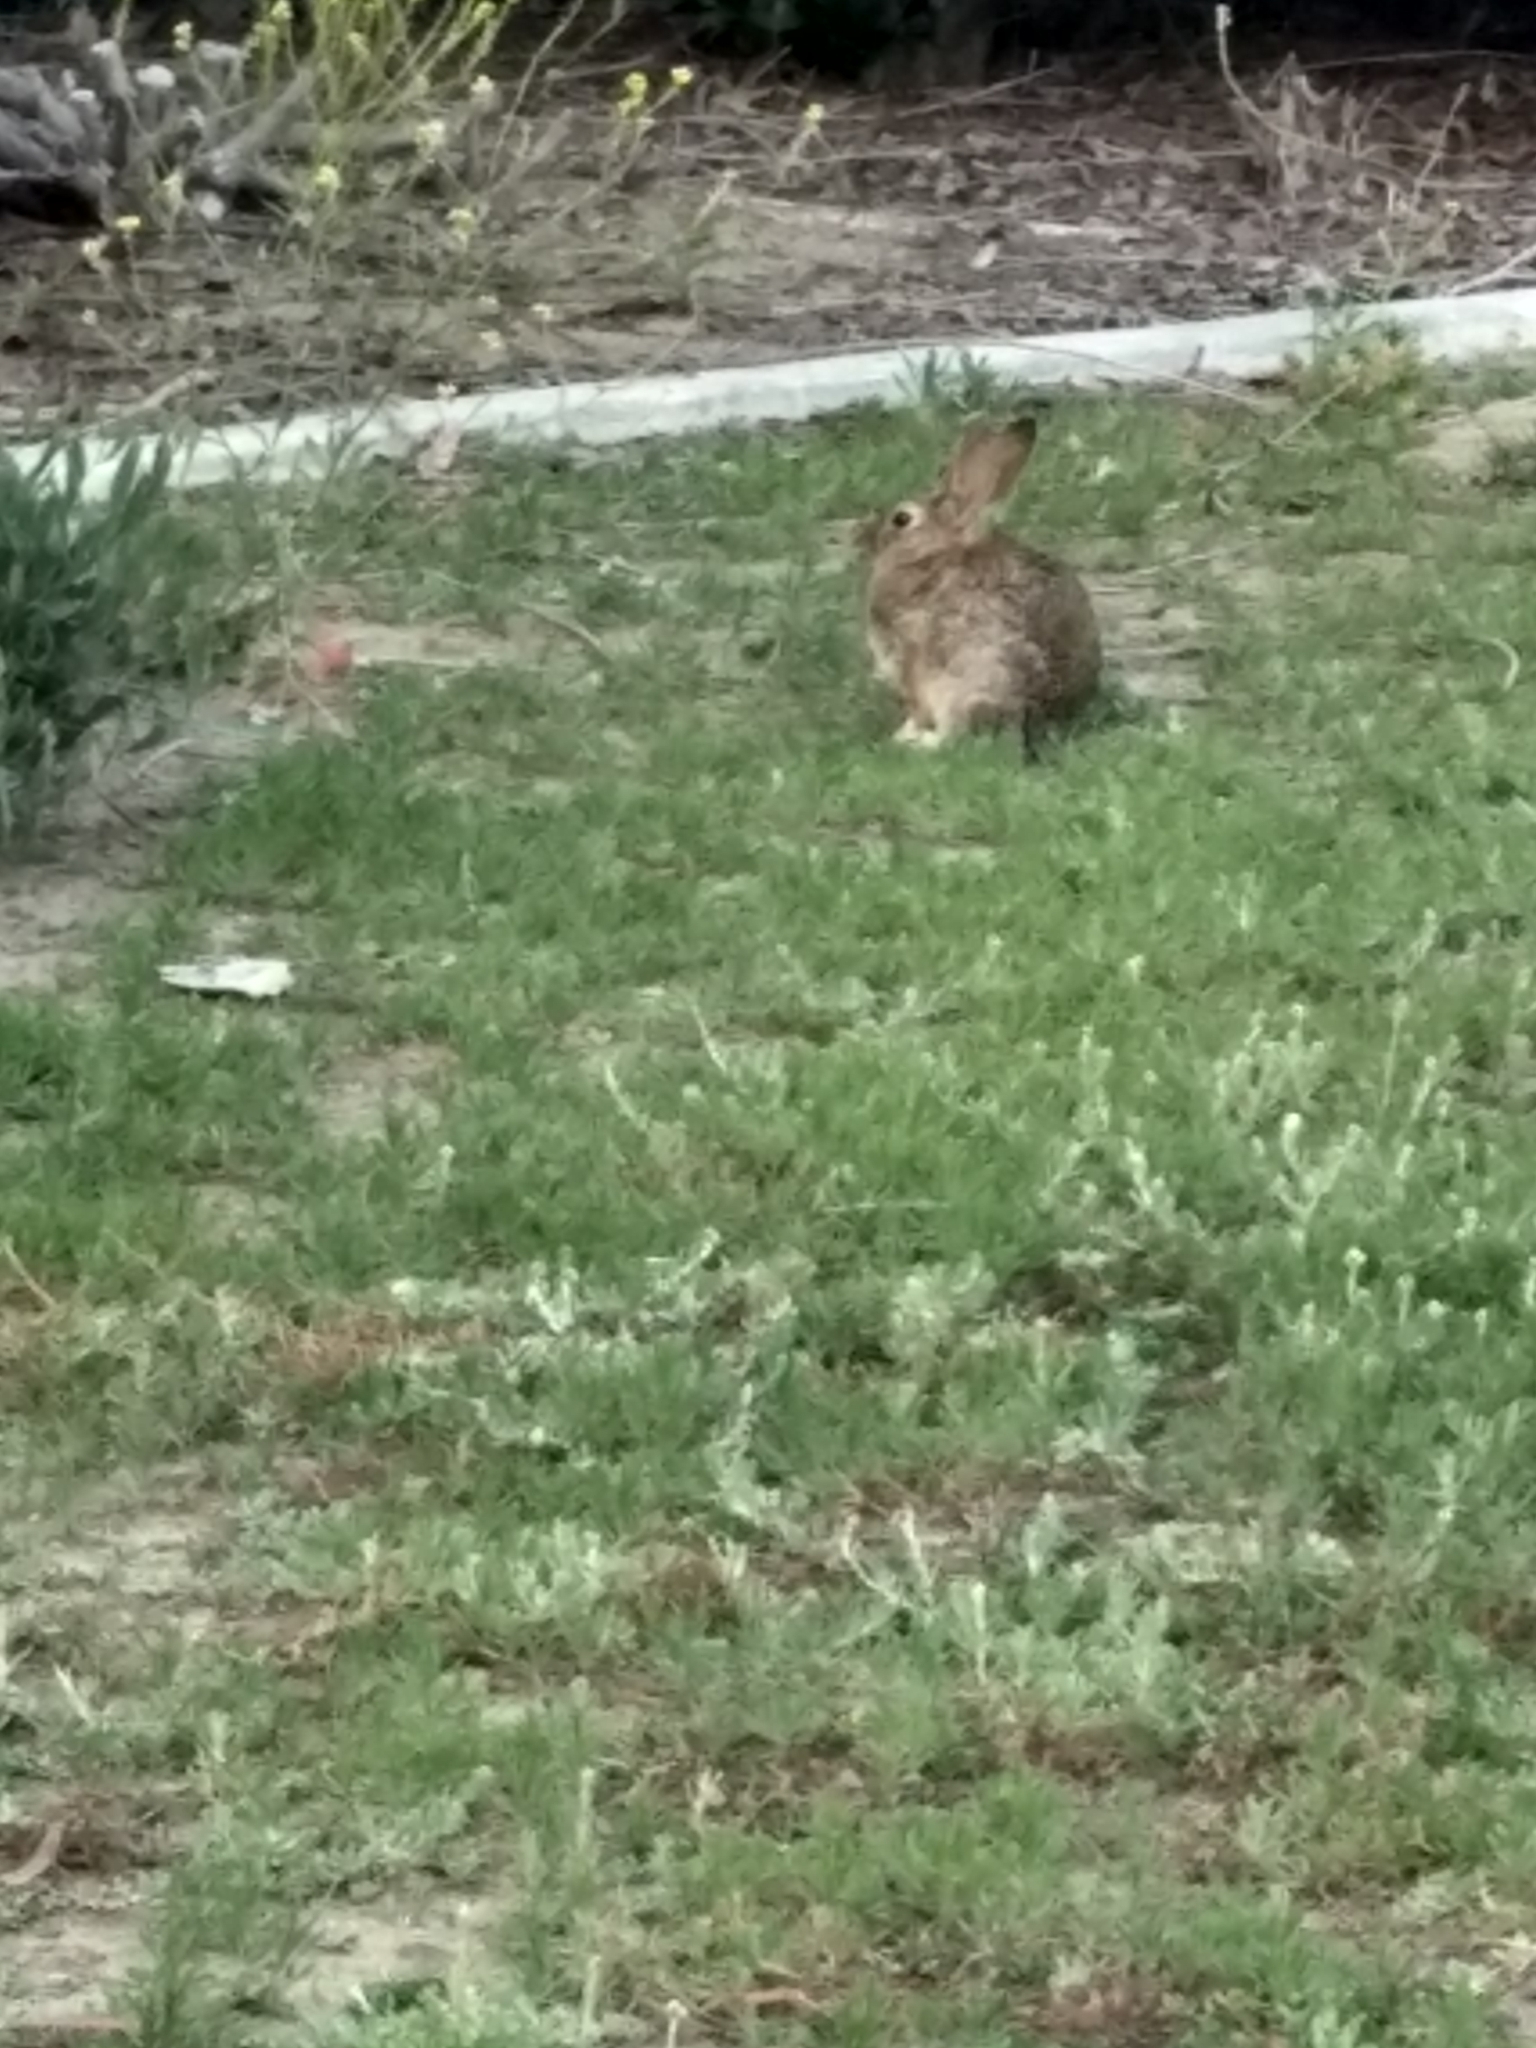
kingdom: Animalia
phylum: Chordata
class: Mammalia
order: Lagomorpha
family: Leporidae
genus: Sylvilagus
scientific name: Sylvilagus audubonii
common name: Desert cottontail
